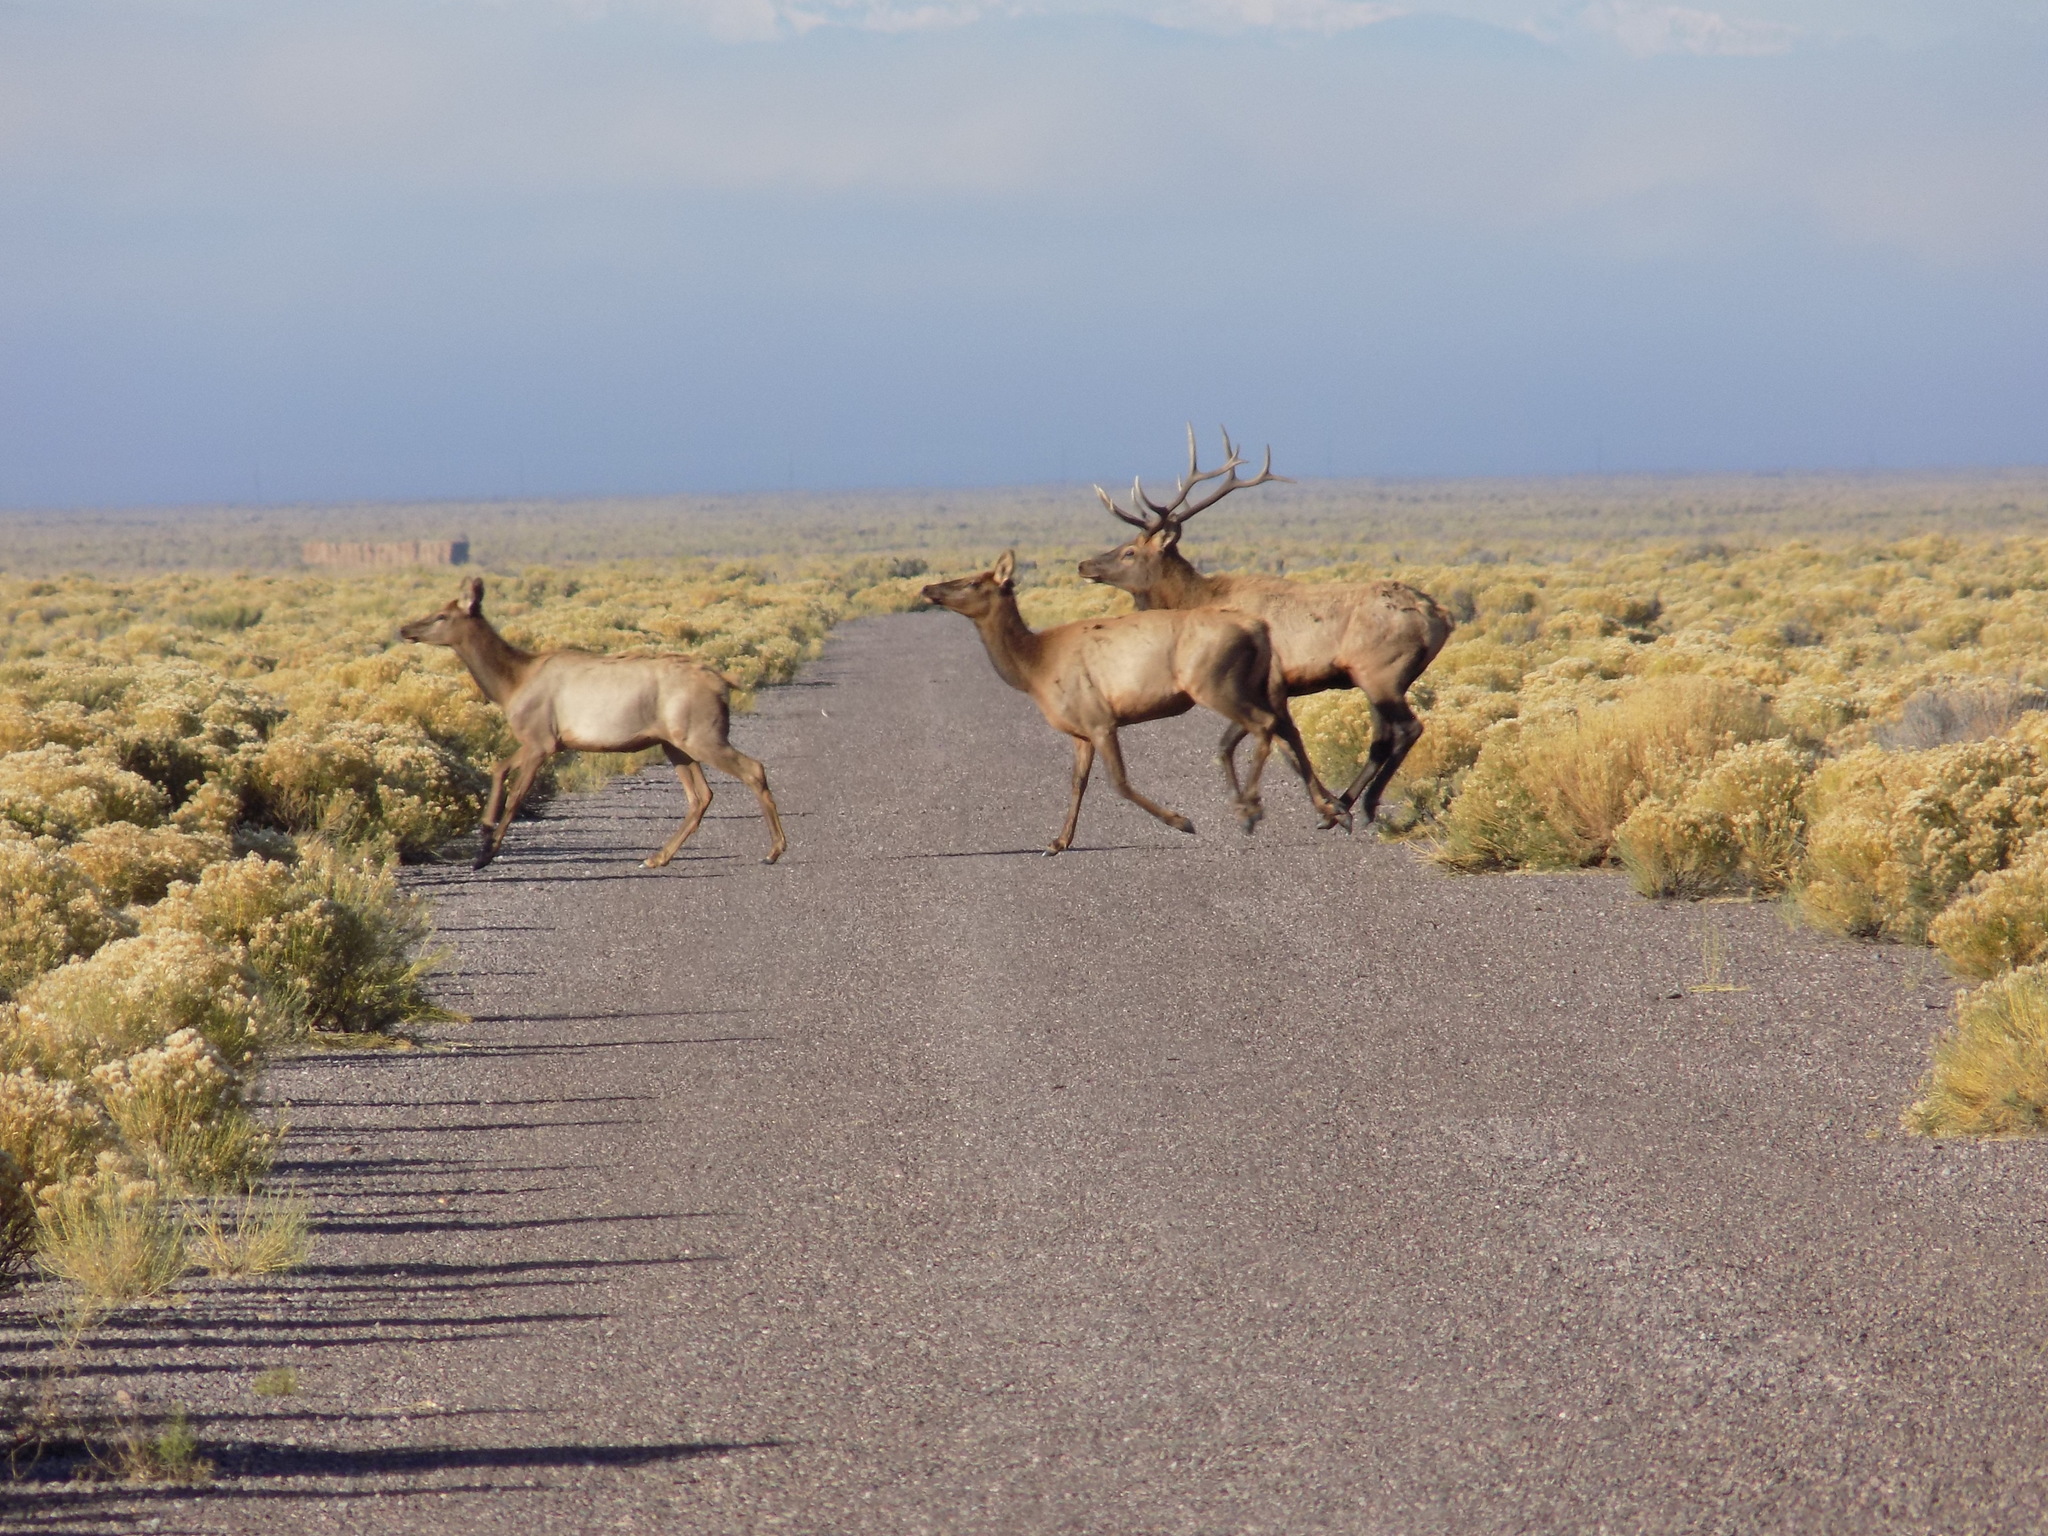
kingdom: Animalia
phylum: Chordata
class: Mammalia
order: Artiodactyla
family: Cervidae
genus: Cervus
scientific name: Cervus elaphus
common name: Red deer
